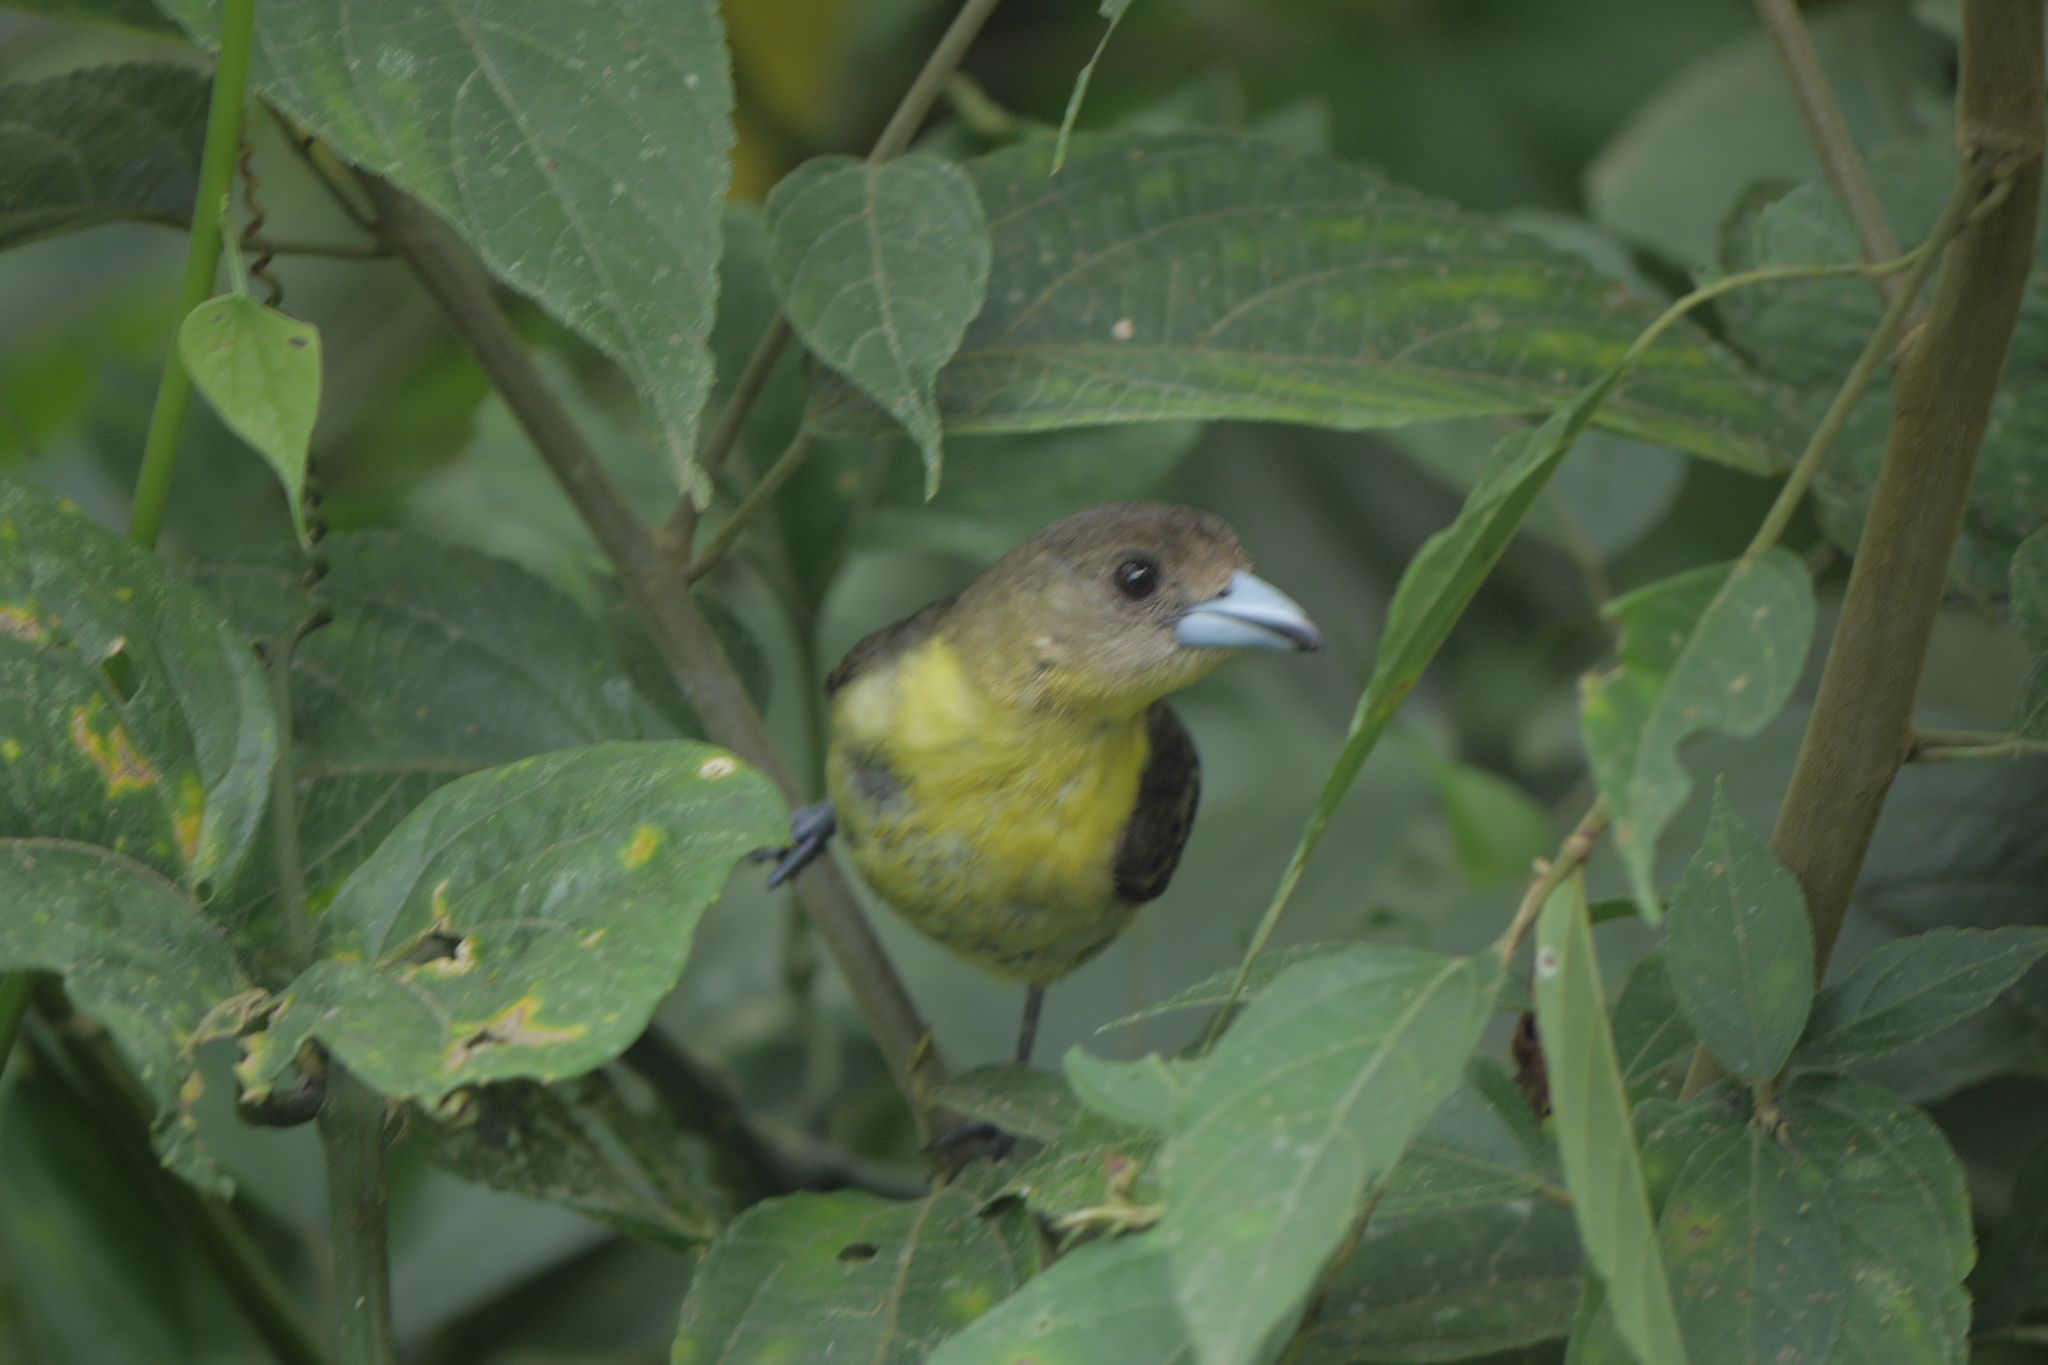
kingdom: Animalia
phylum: Chordata
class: Aves
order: Passeriformes
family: Thraupidae
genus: Ramphocelus
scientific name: Ramphocelus flammigerus
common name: Flame-rumped tanager
